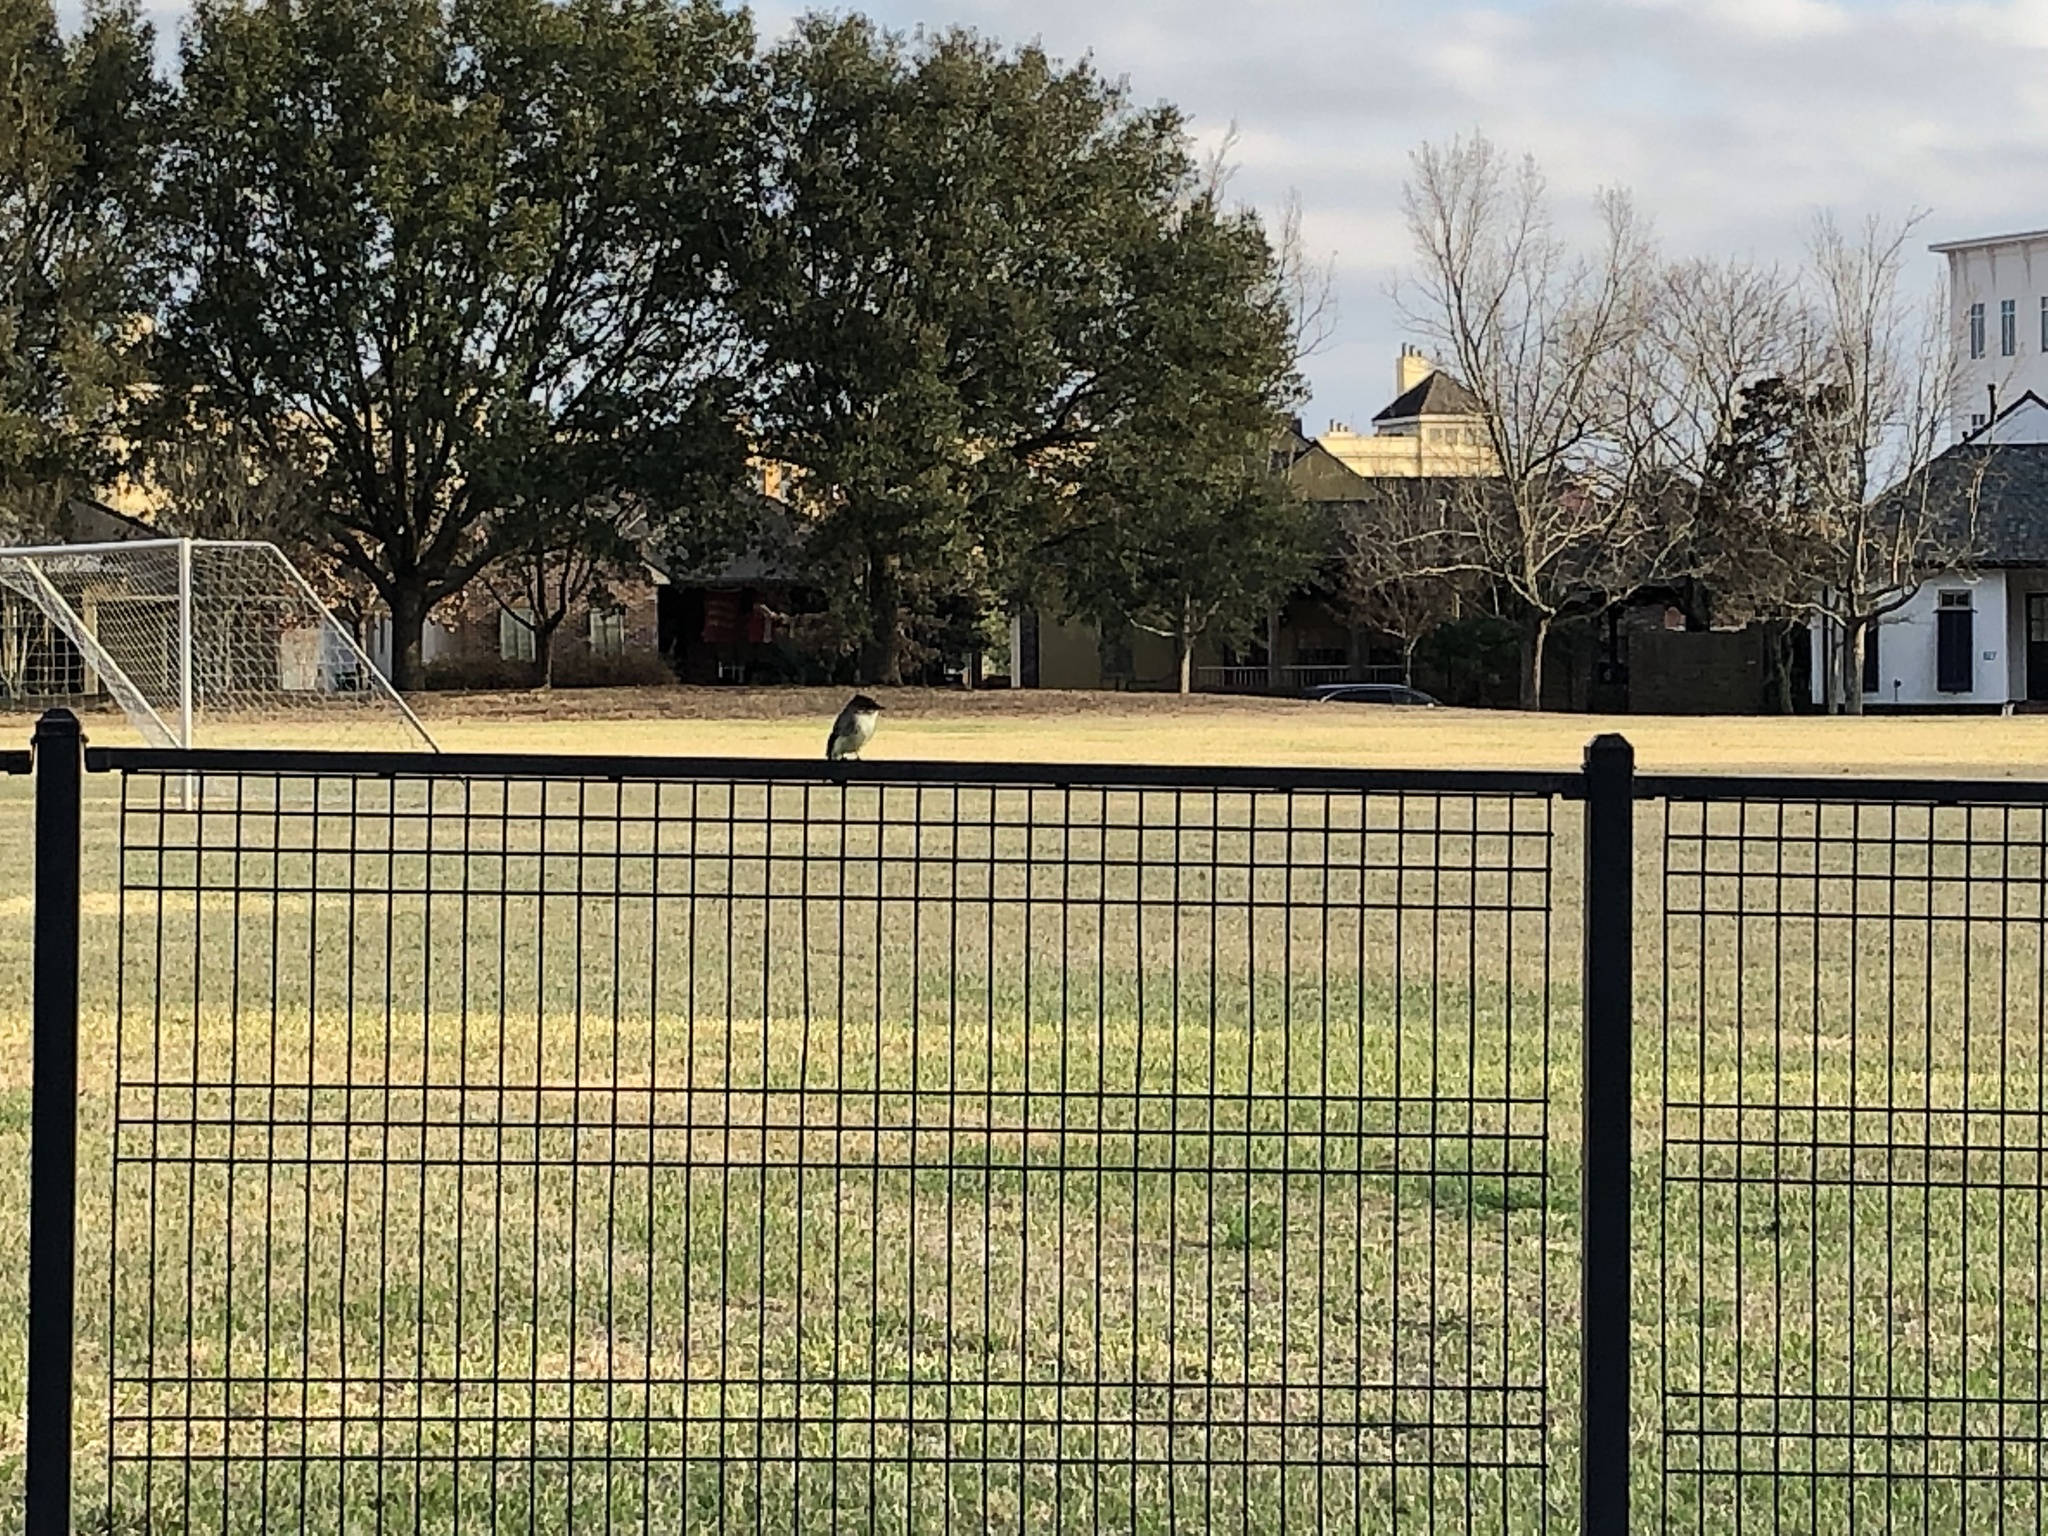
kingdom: Animalia
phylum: Chordata
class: Aves
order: Passeriformes
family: Tyrannidae
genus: Sayornis
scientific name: Sayornis phoebe
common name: Eastern phoebe
